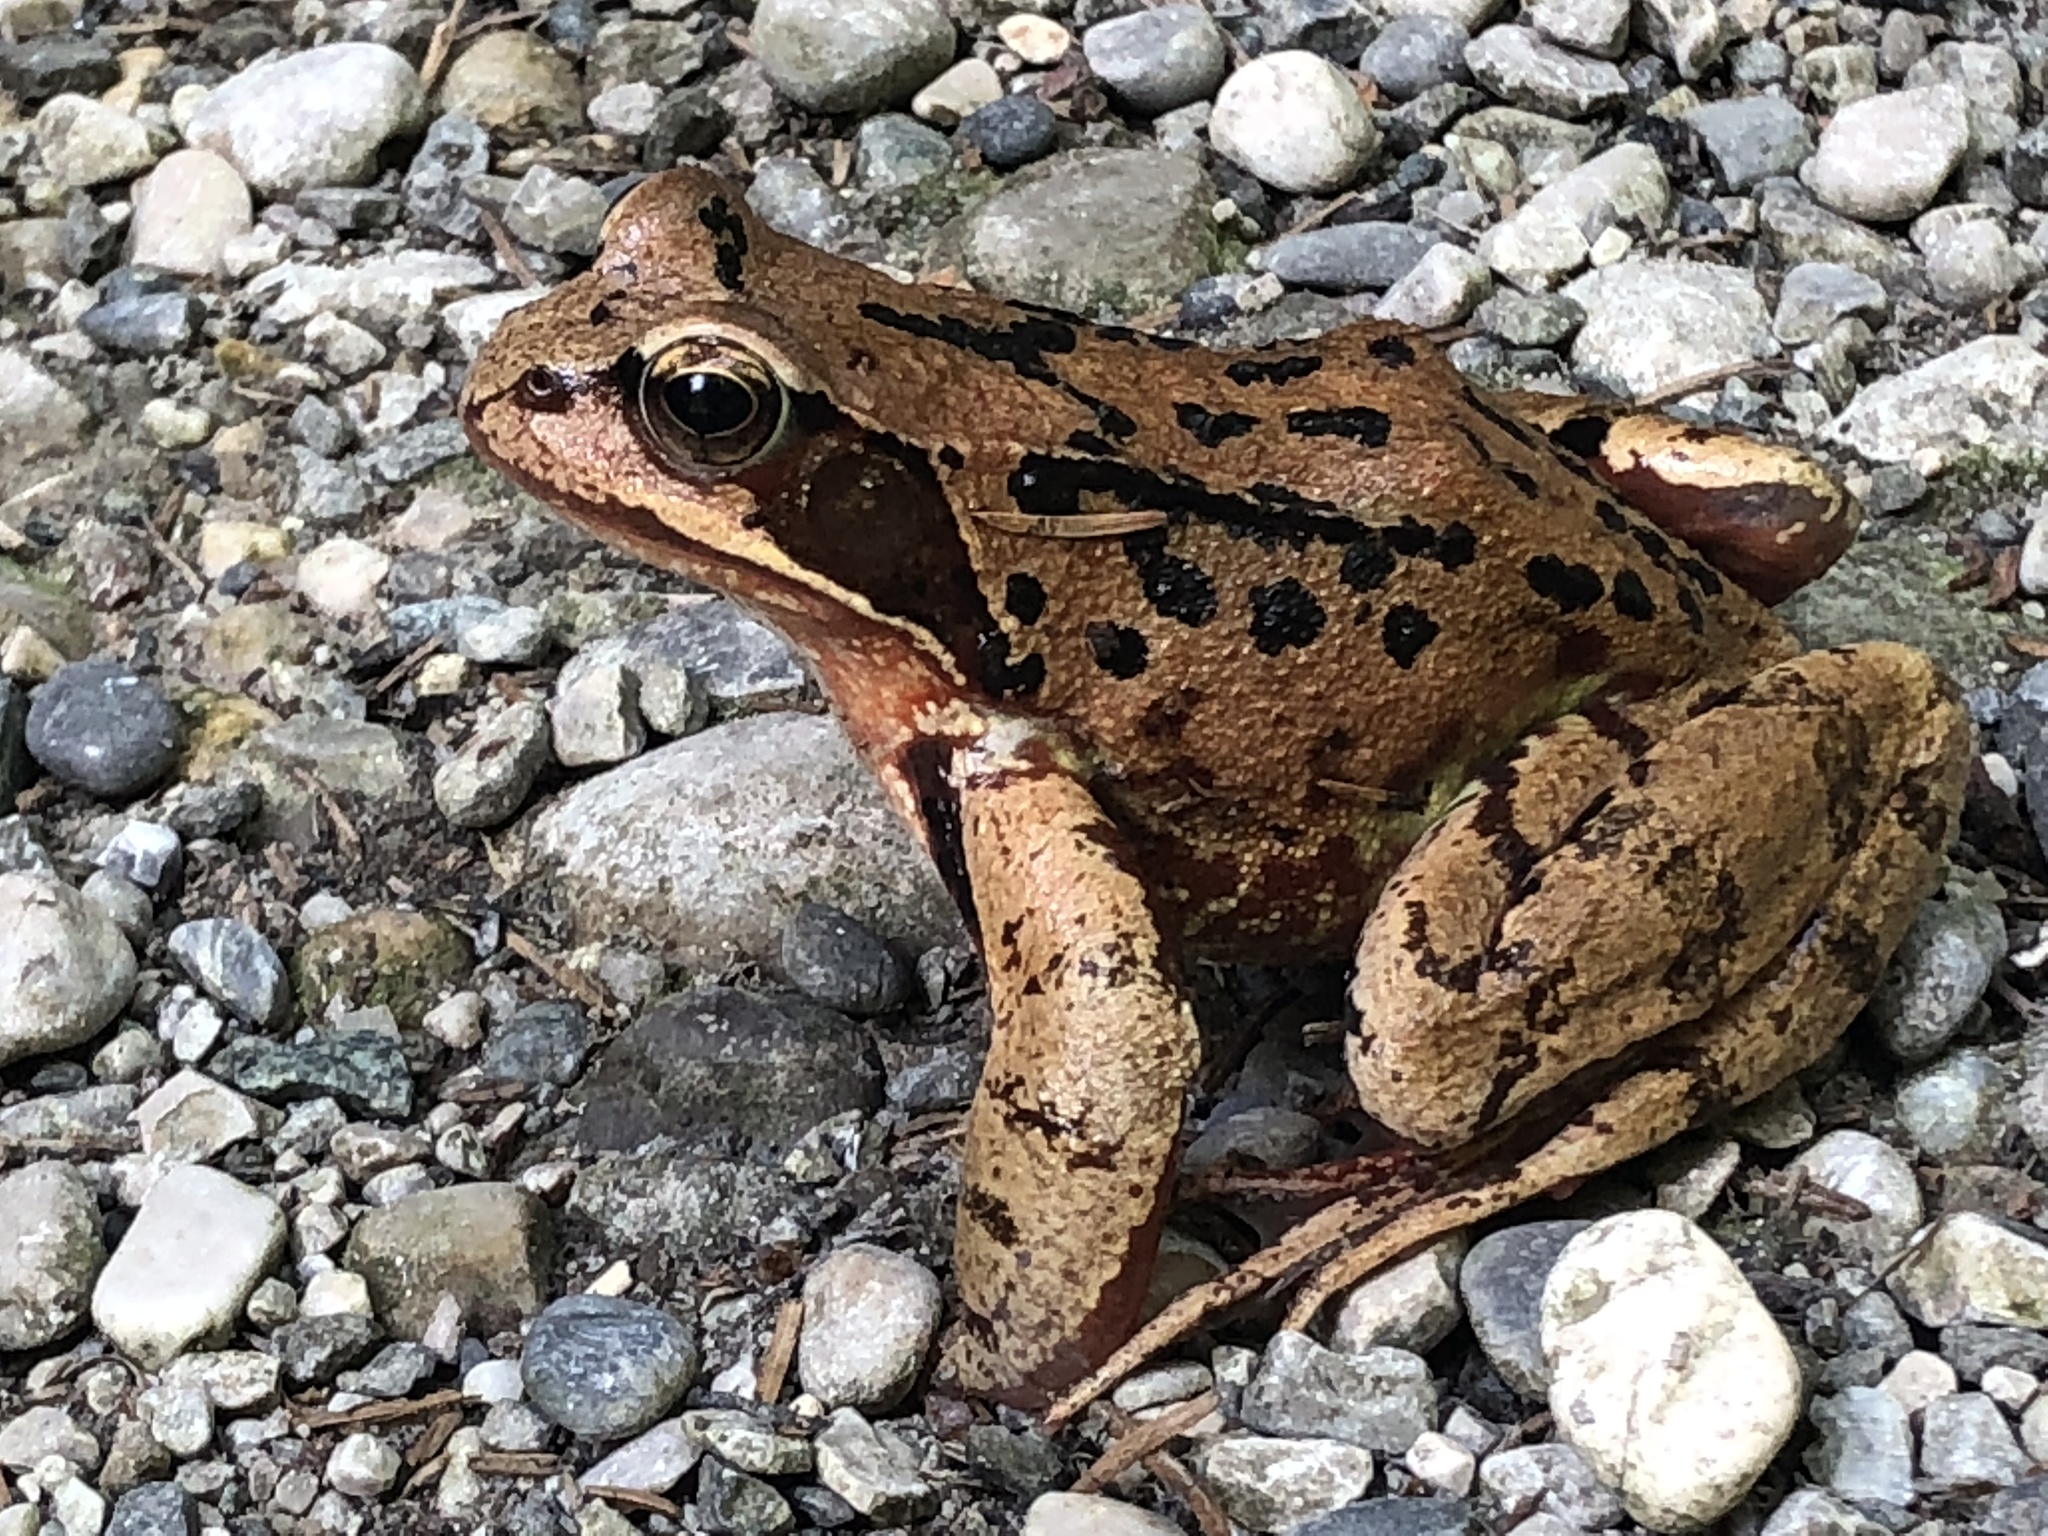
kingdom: Animalia
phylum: Chordata
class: Amphibia
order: Anura
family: Ranidae
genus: Rana
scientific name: Rana temporaria
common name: Common frog
